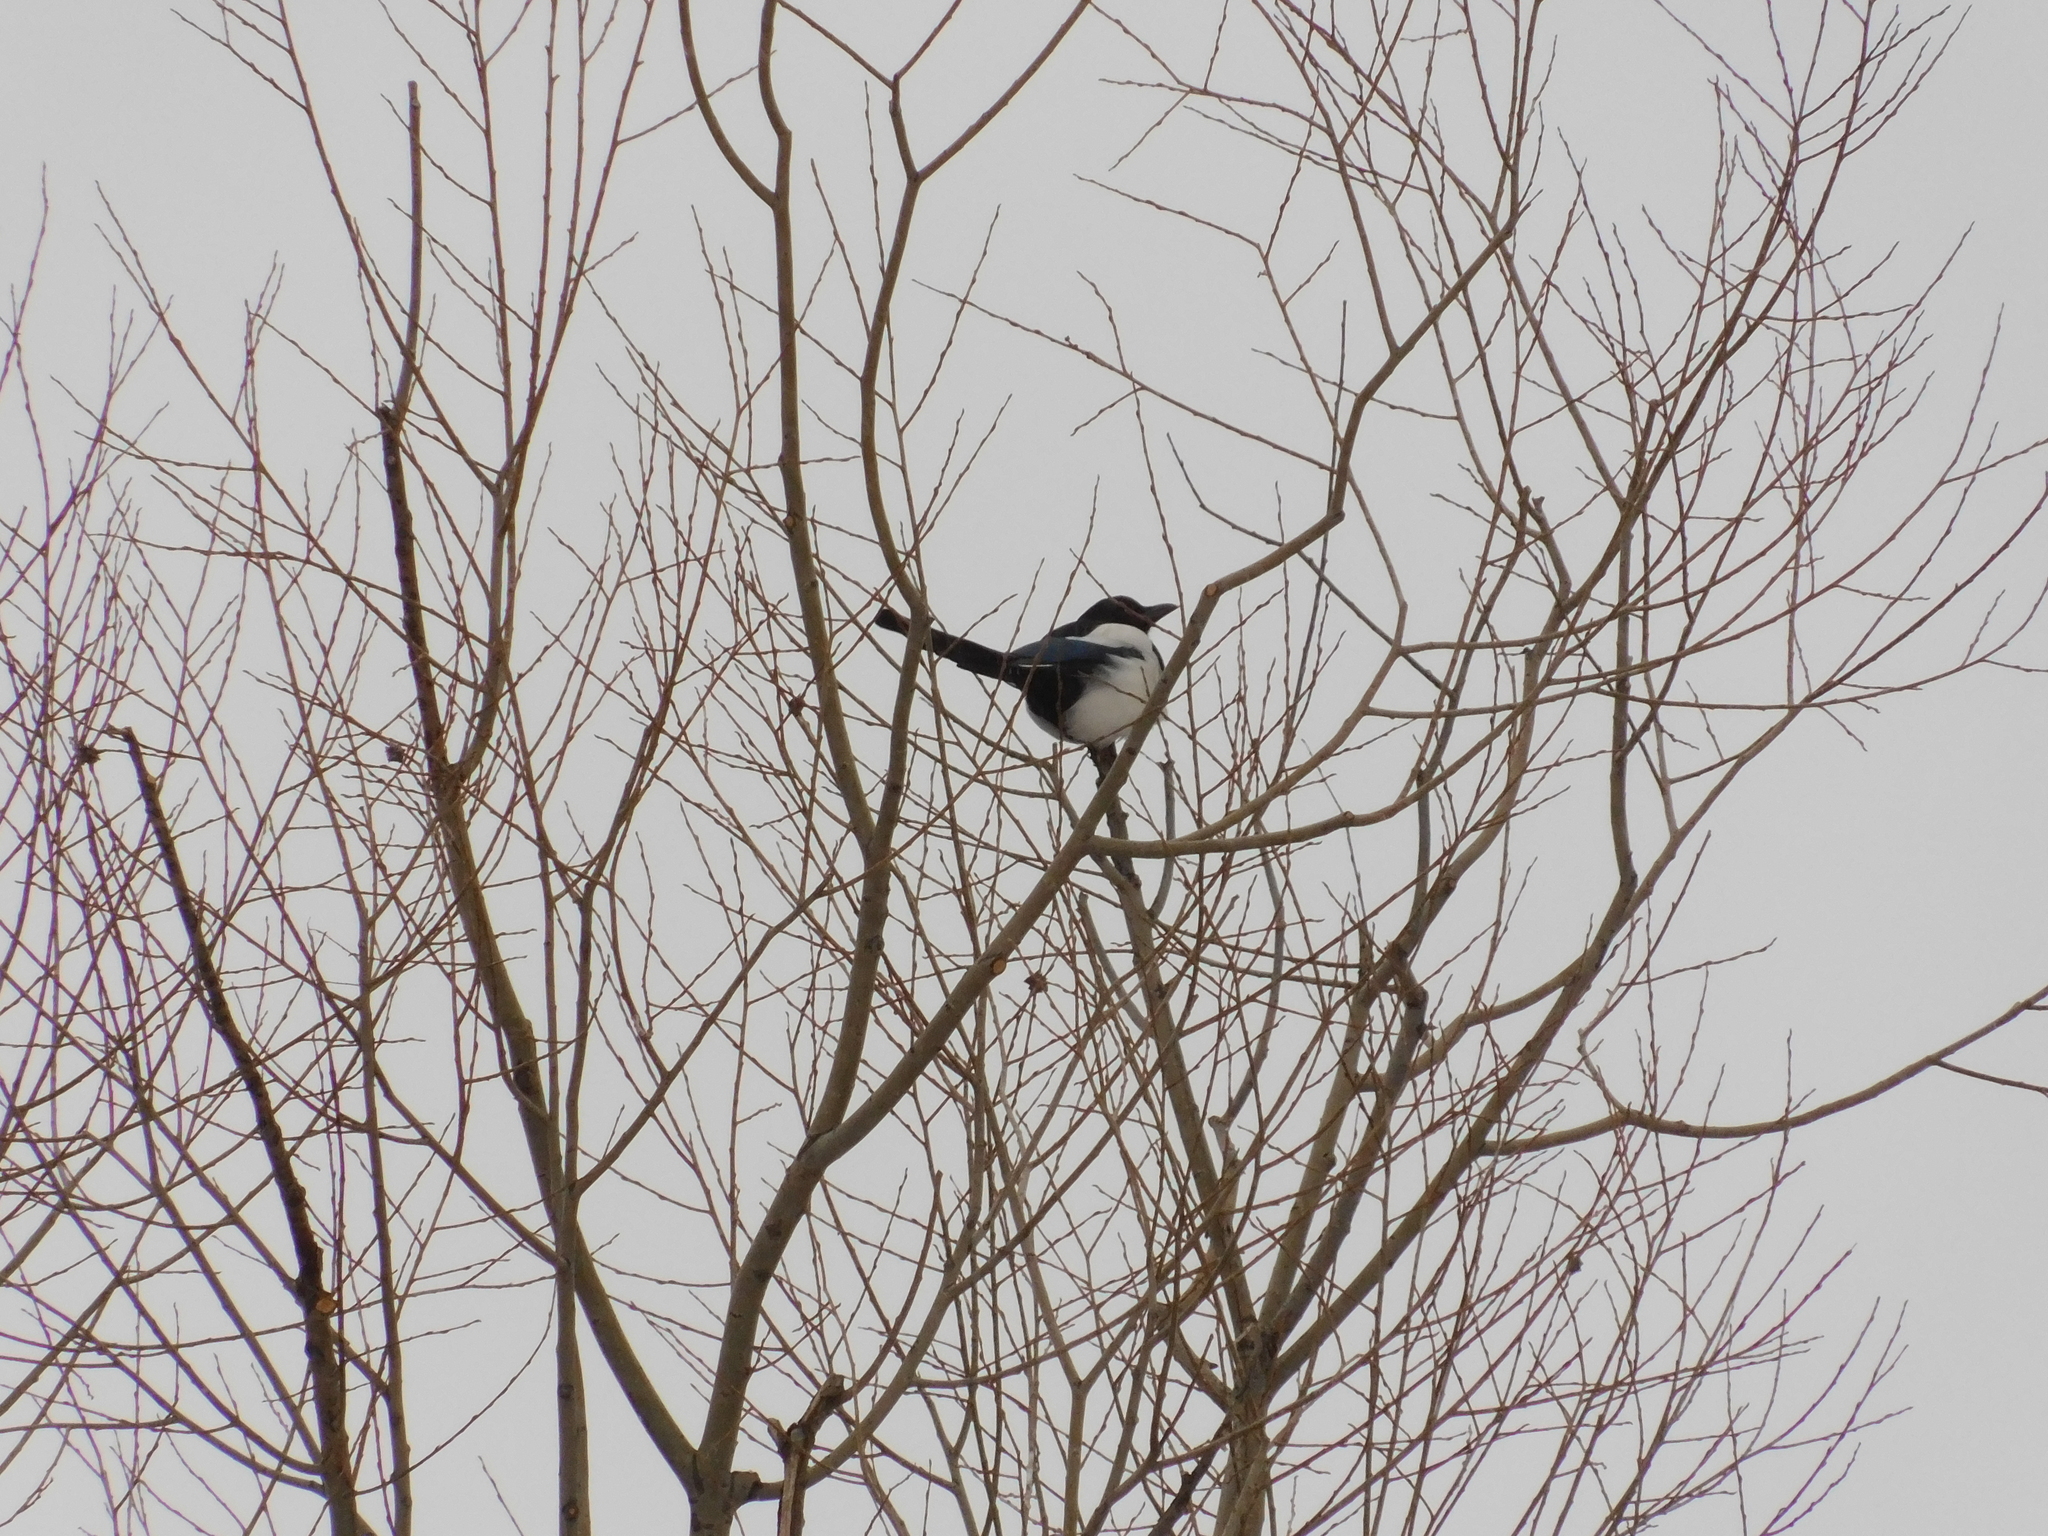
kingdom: Animalia
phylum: Chordata
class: Aves
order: Passeriformes
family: Corvidae
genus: Pica
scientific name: Pica pica
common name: Eurasian magpie
